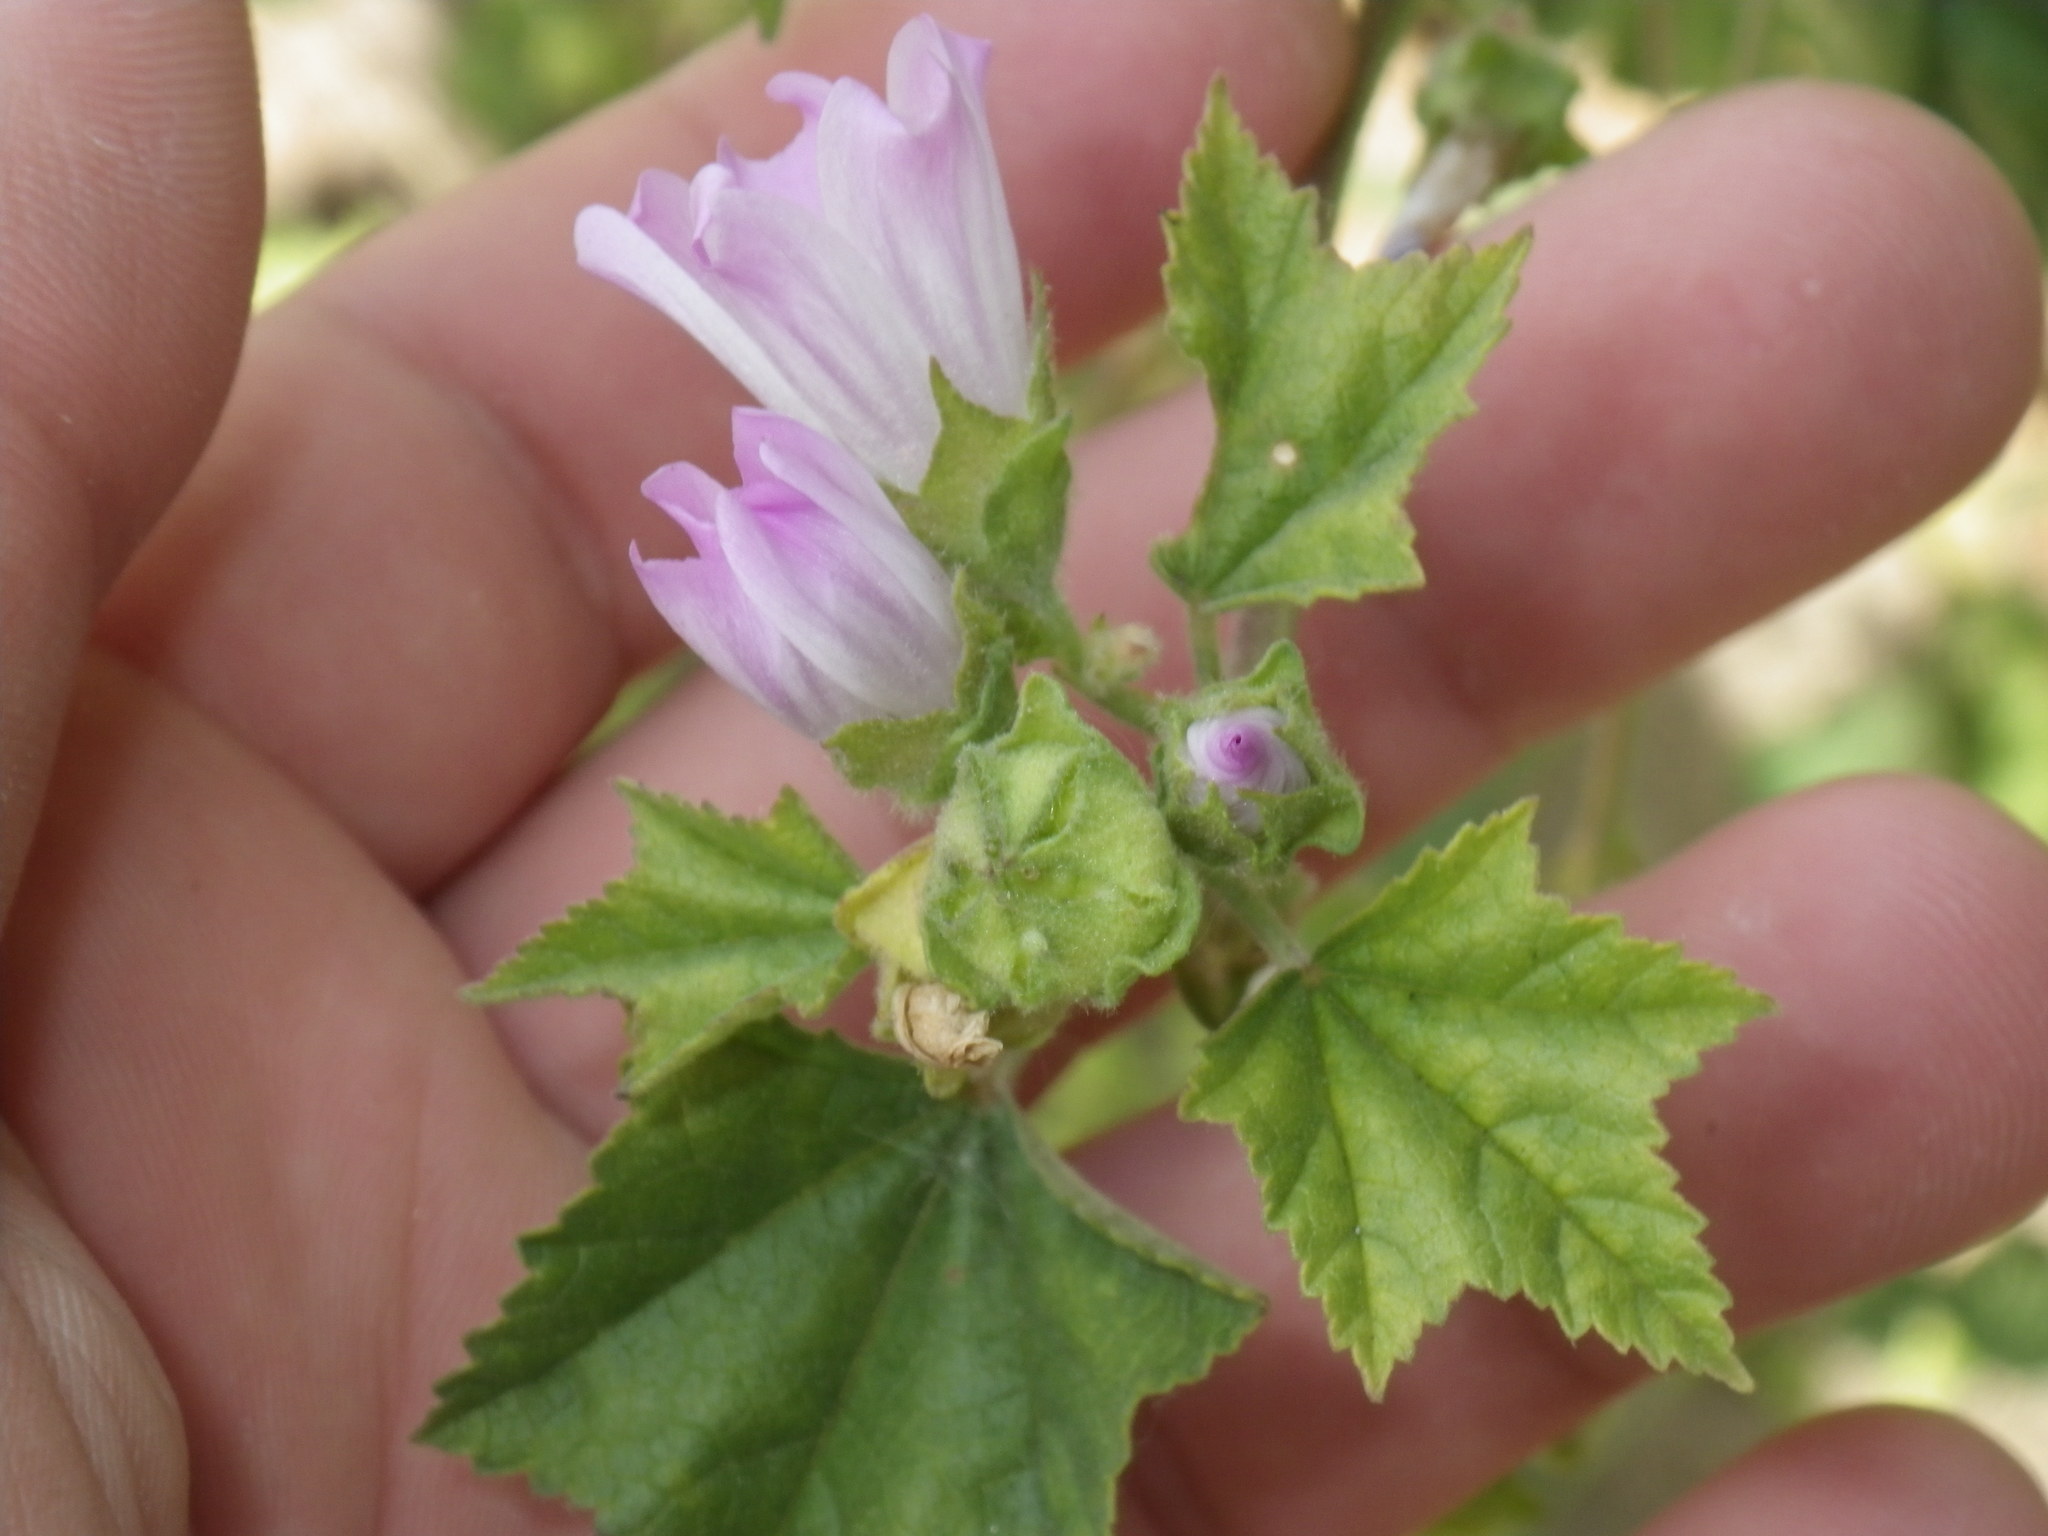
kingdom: Plantae
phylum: Tracheophyta
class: Magnoliopsida
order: Malvales
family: Malvaceae
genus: Malva
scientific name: Malva multiflora
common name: Cheeseweed
